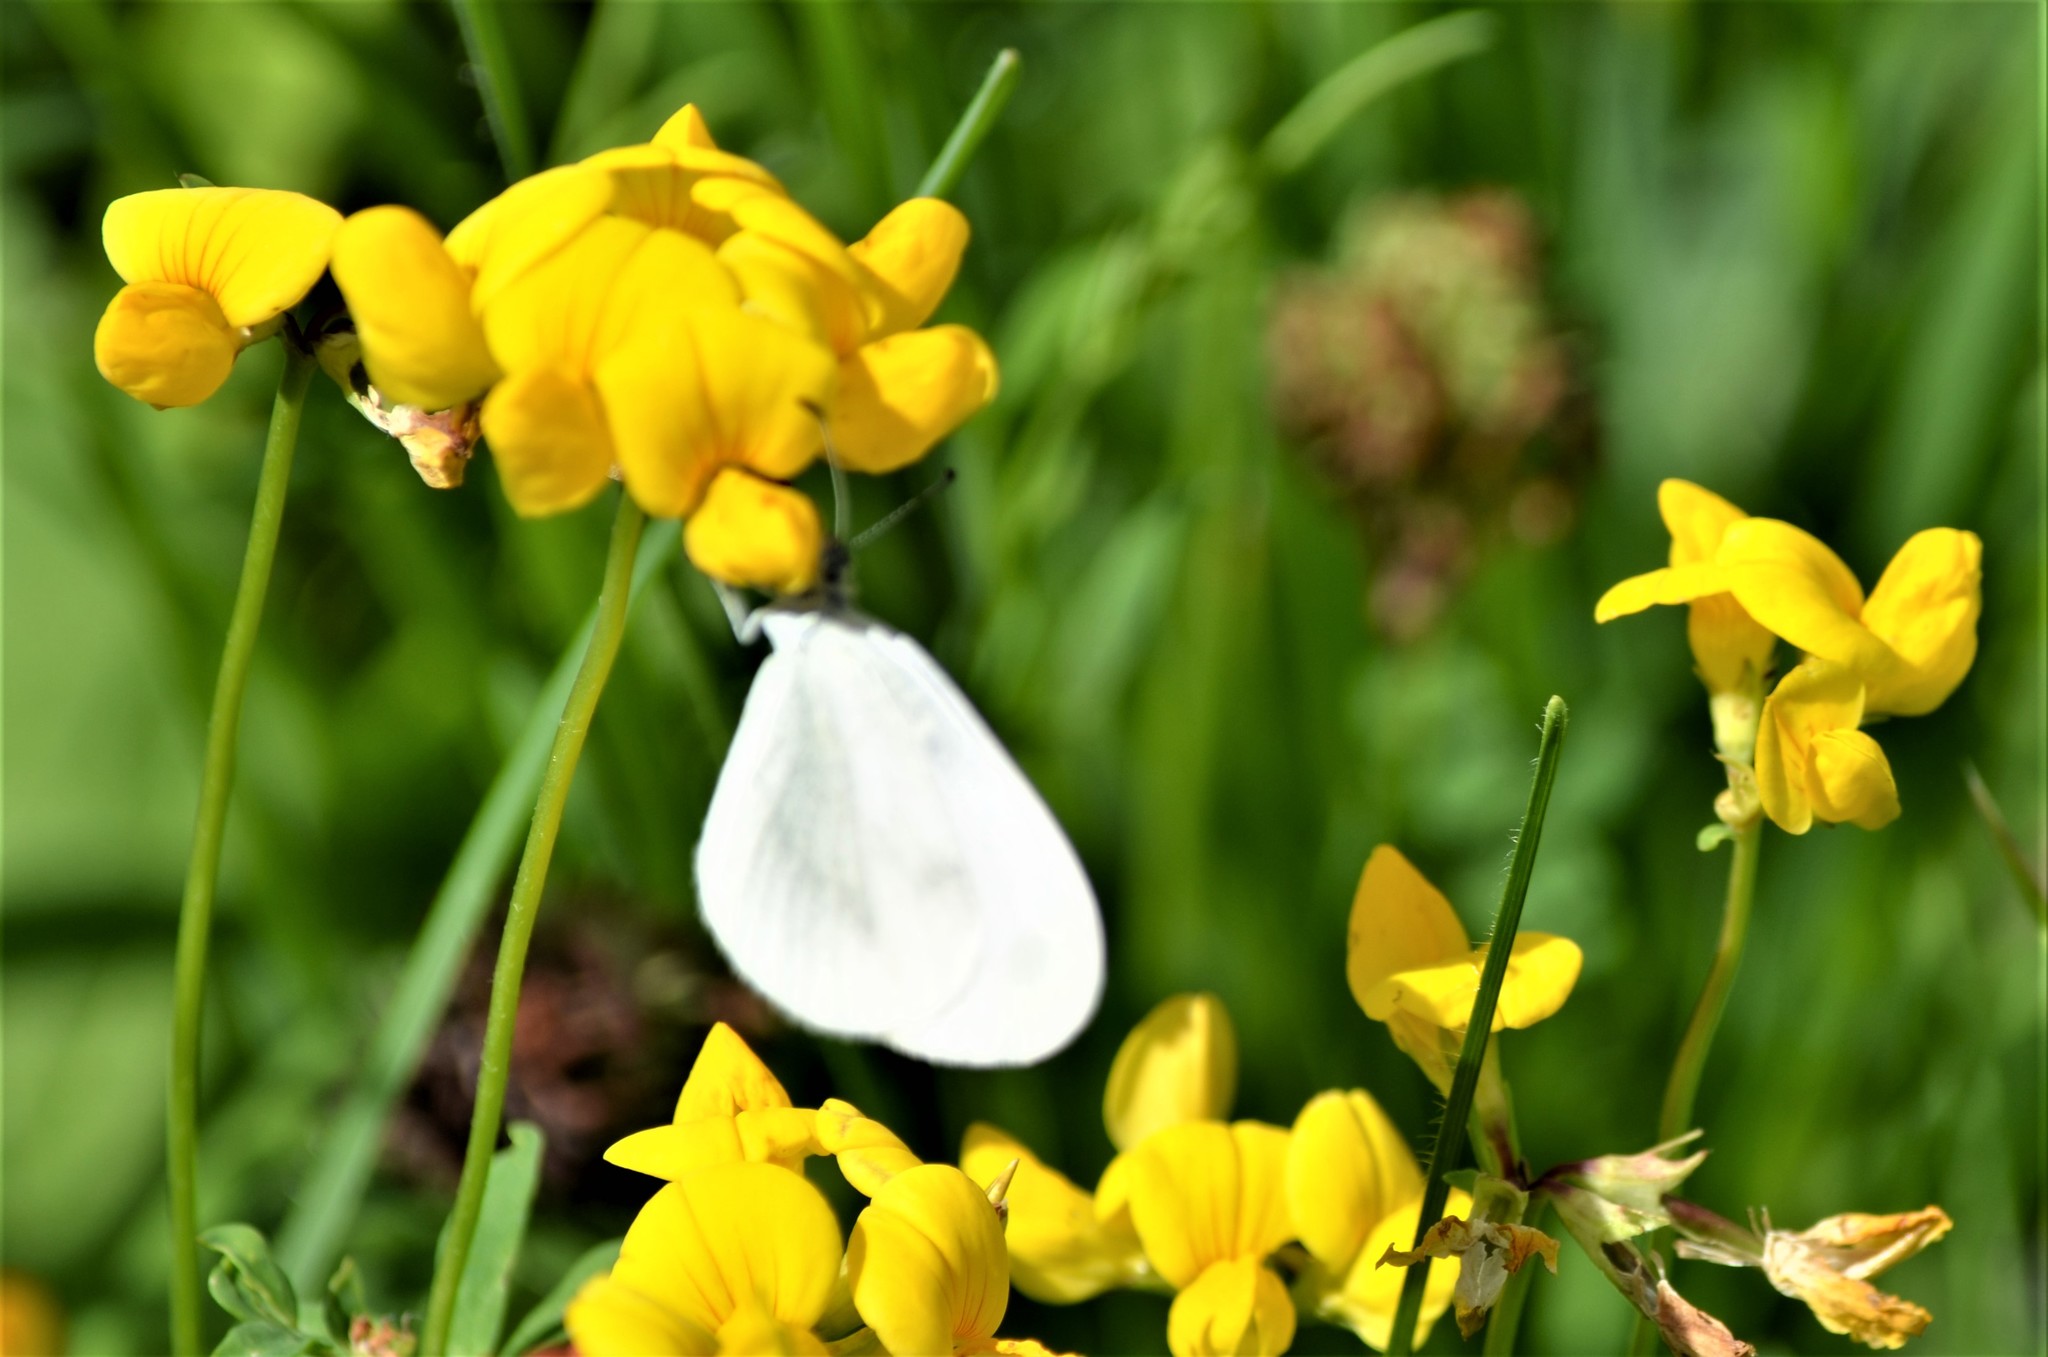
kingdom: Animalia
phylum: Arthropoda
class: Insecta
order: Lepidoptera
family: Pieridae
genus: Leptidea
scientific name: Leptidea
